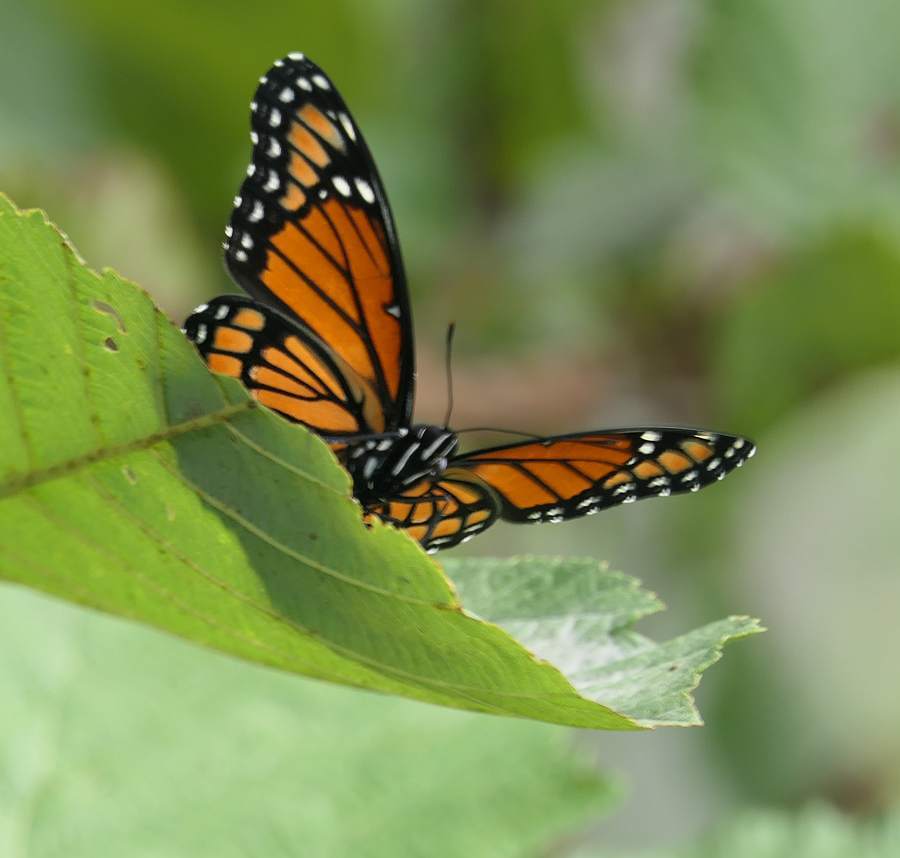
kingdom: Animalia
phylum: Arthropoda
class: Insecta
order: Lepidoptera
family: Nymphalidae
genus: Limenitis
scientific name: Limenitis archippus
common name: Viceroy
